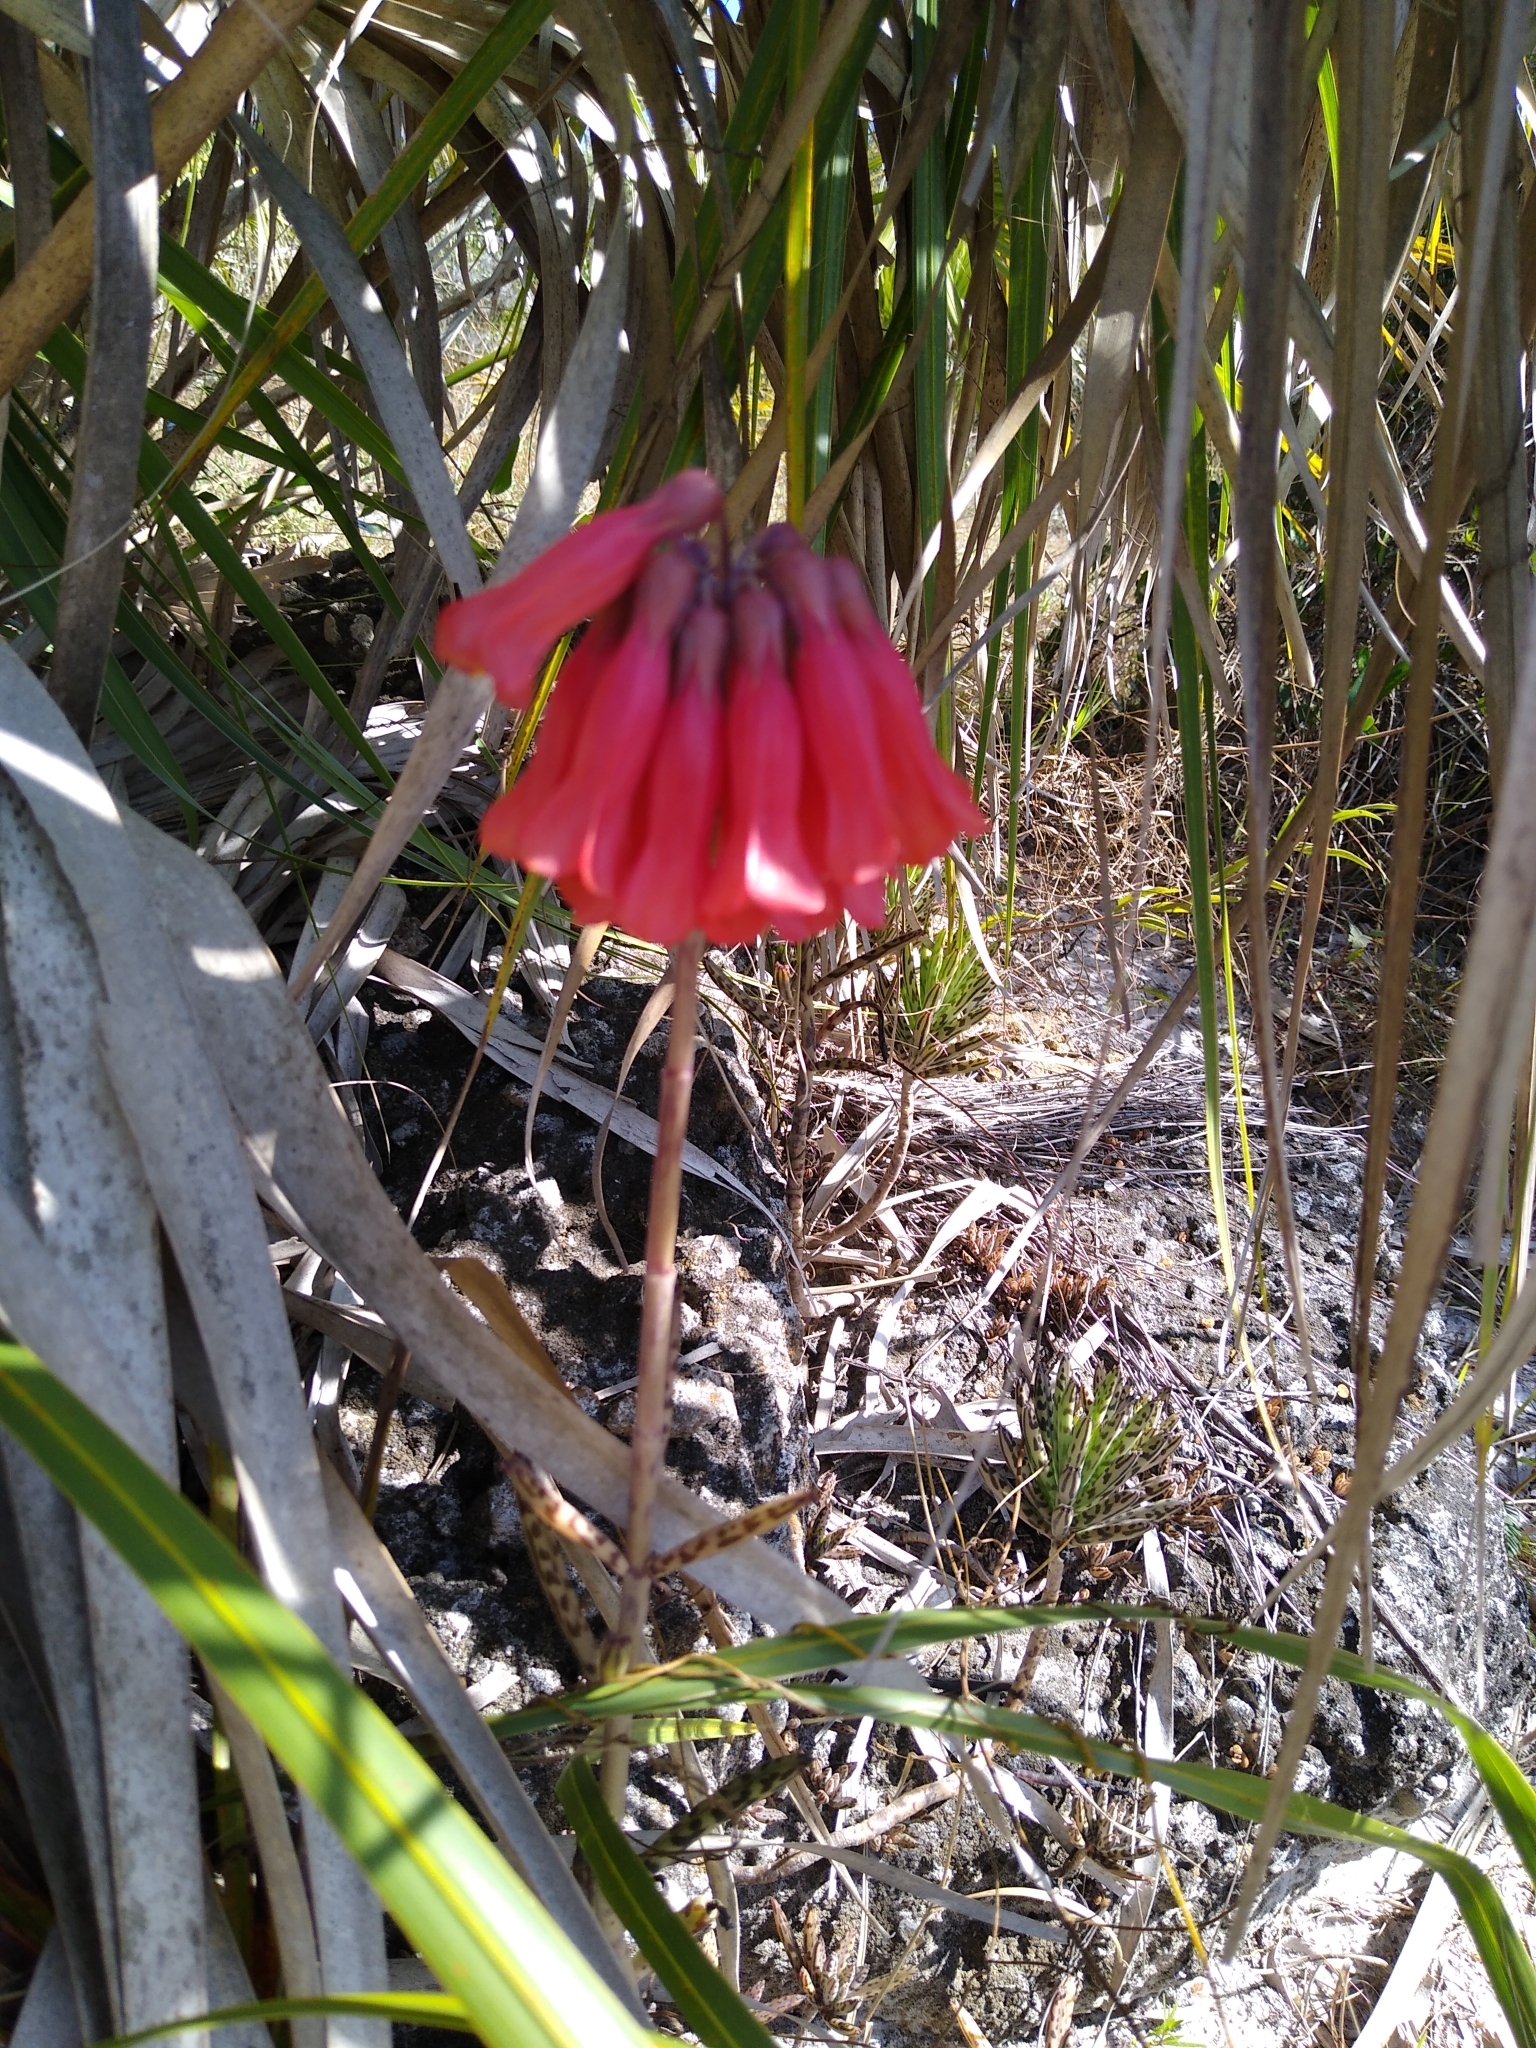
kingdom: Plantae
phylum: Tracheophyta
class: Magnoliopsida
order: Saxifragales
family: Crassulaceae
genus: Kalanchoe
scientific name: Kalanchoe delagoensis
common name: Chandelier plant
